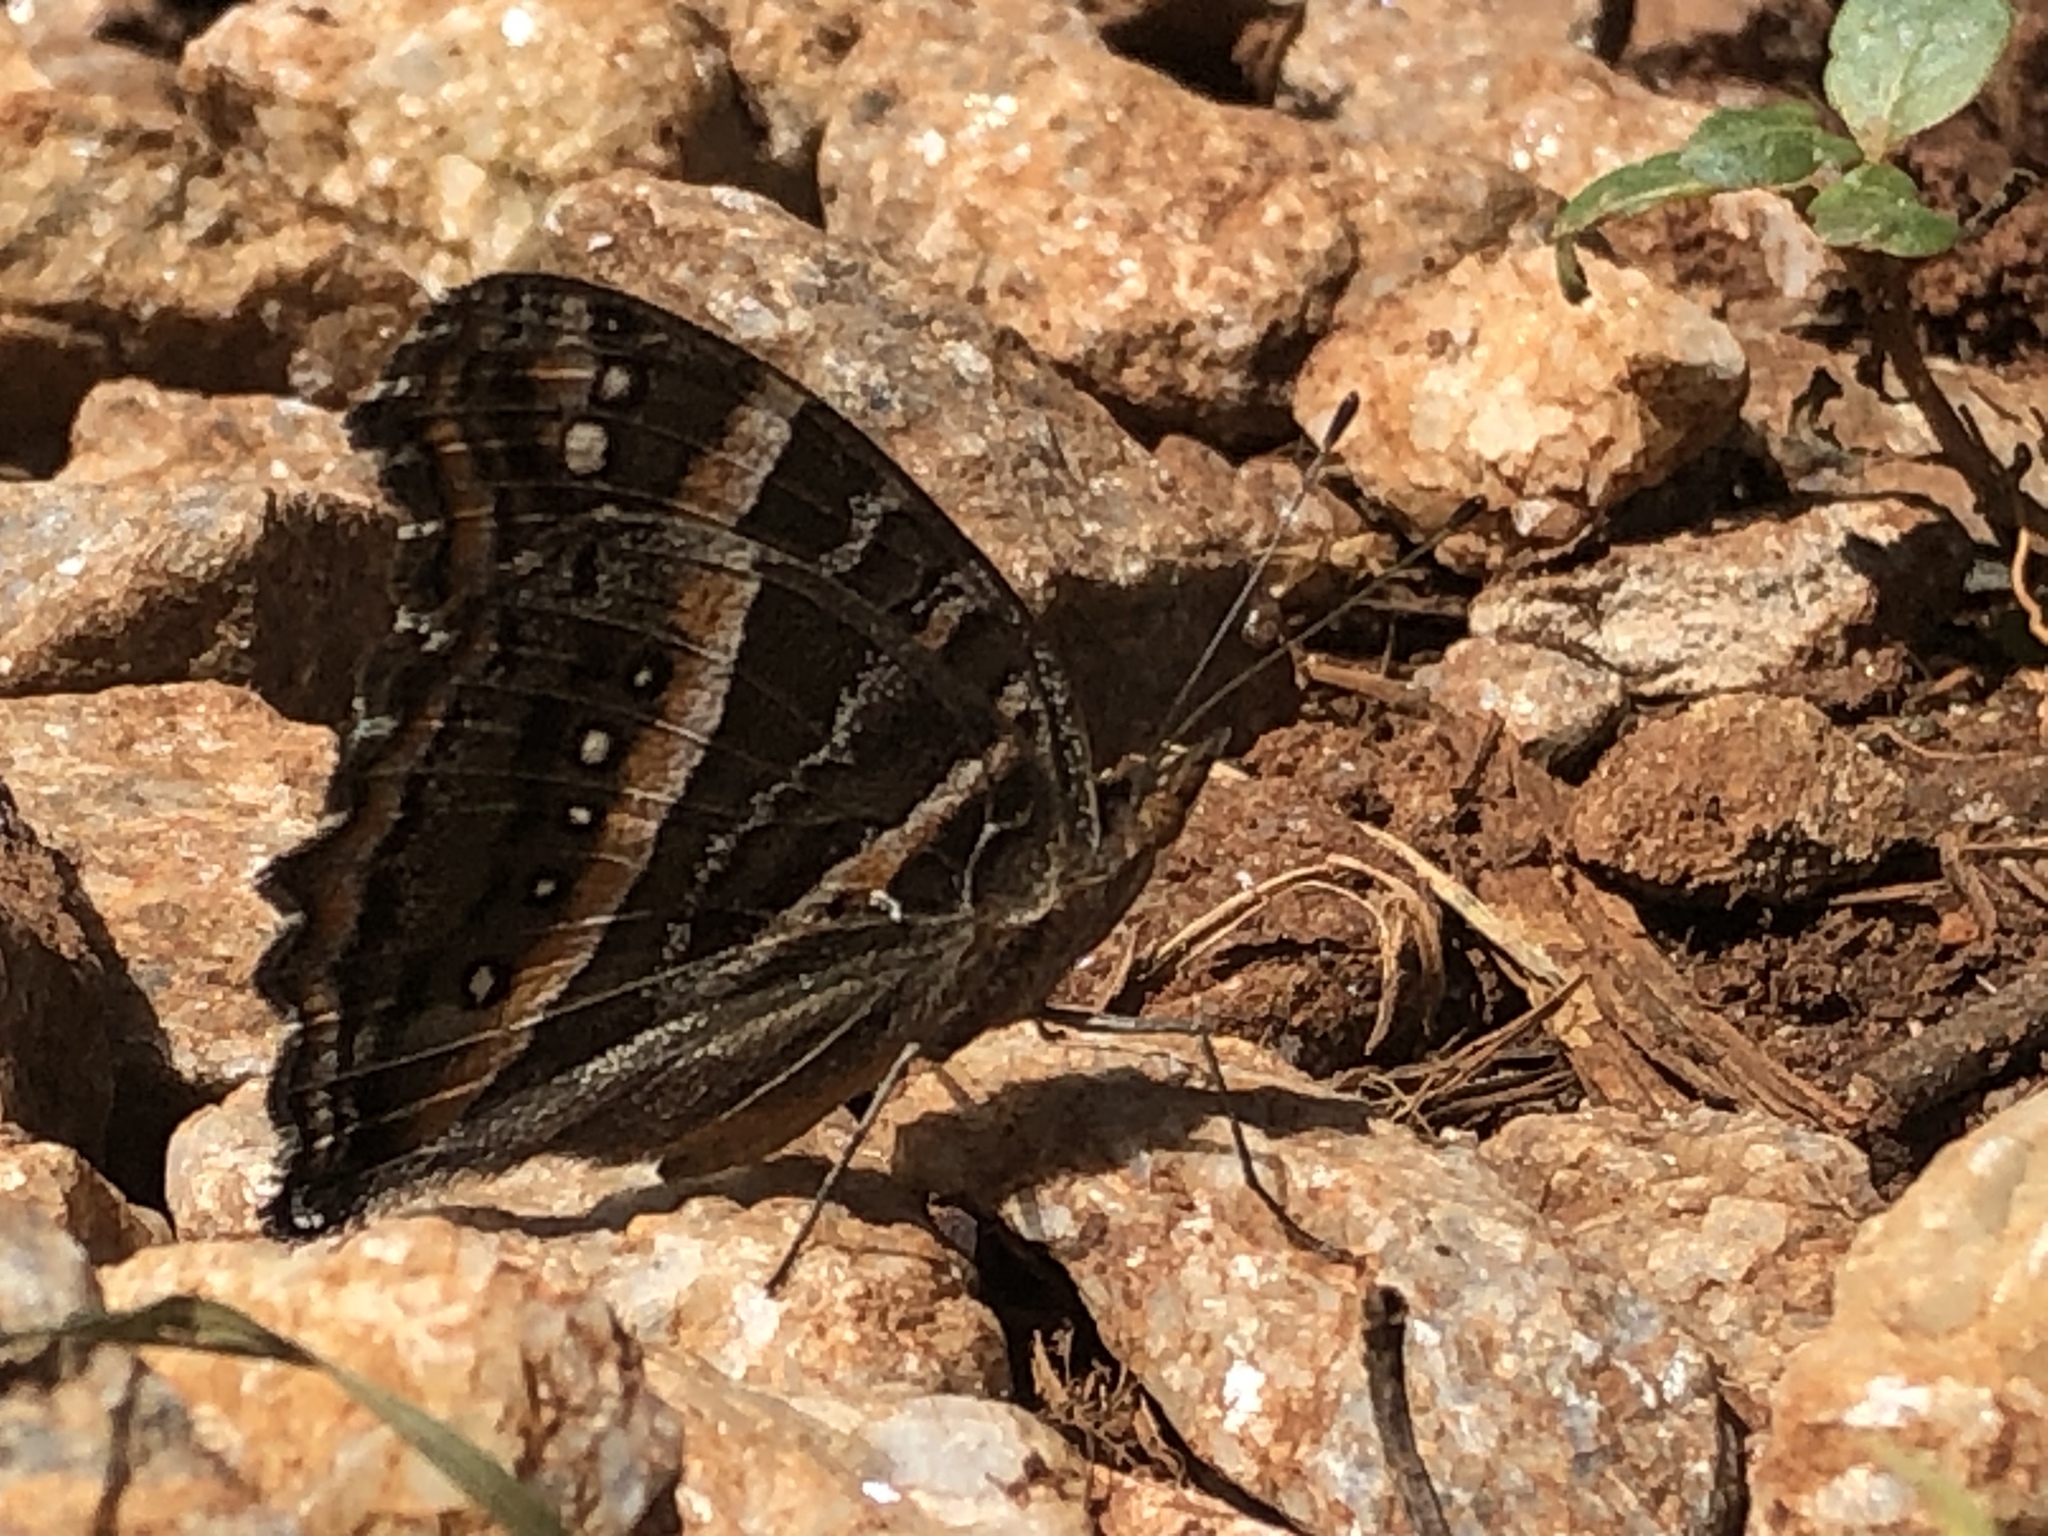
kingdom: Animalia
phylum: Arthropoda
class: Insecta
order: Lepidoptera
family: Nymphalidae
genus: Junonia
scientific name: Junonia limnoria
